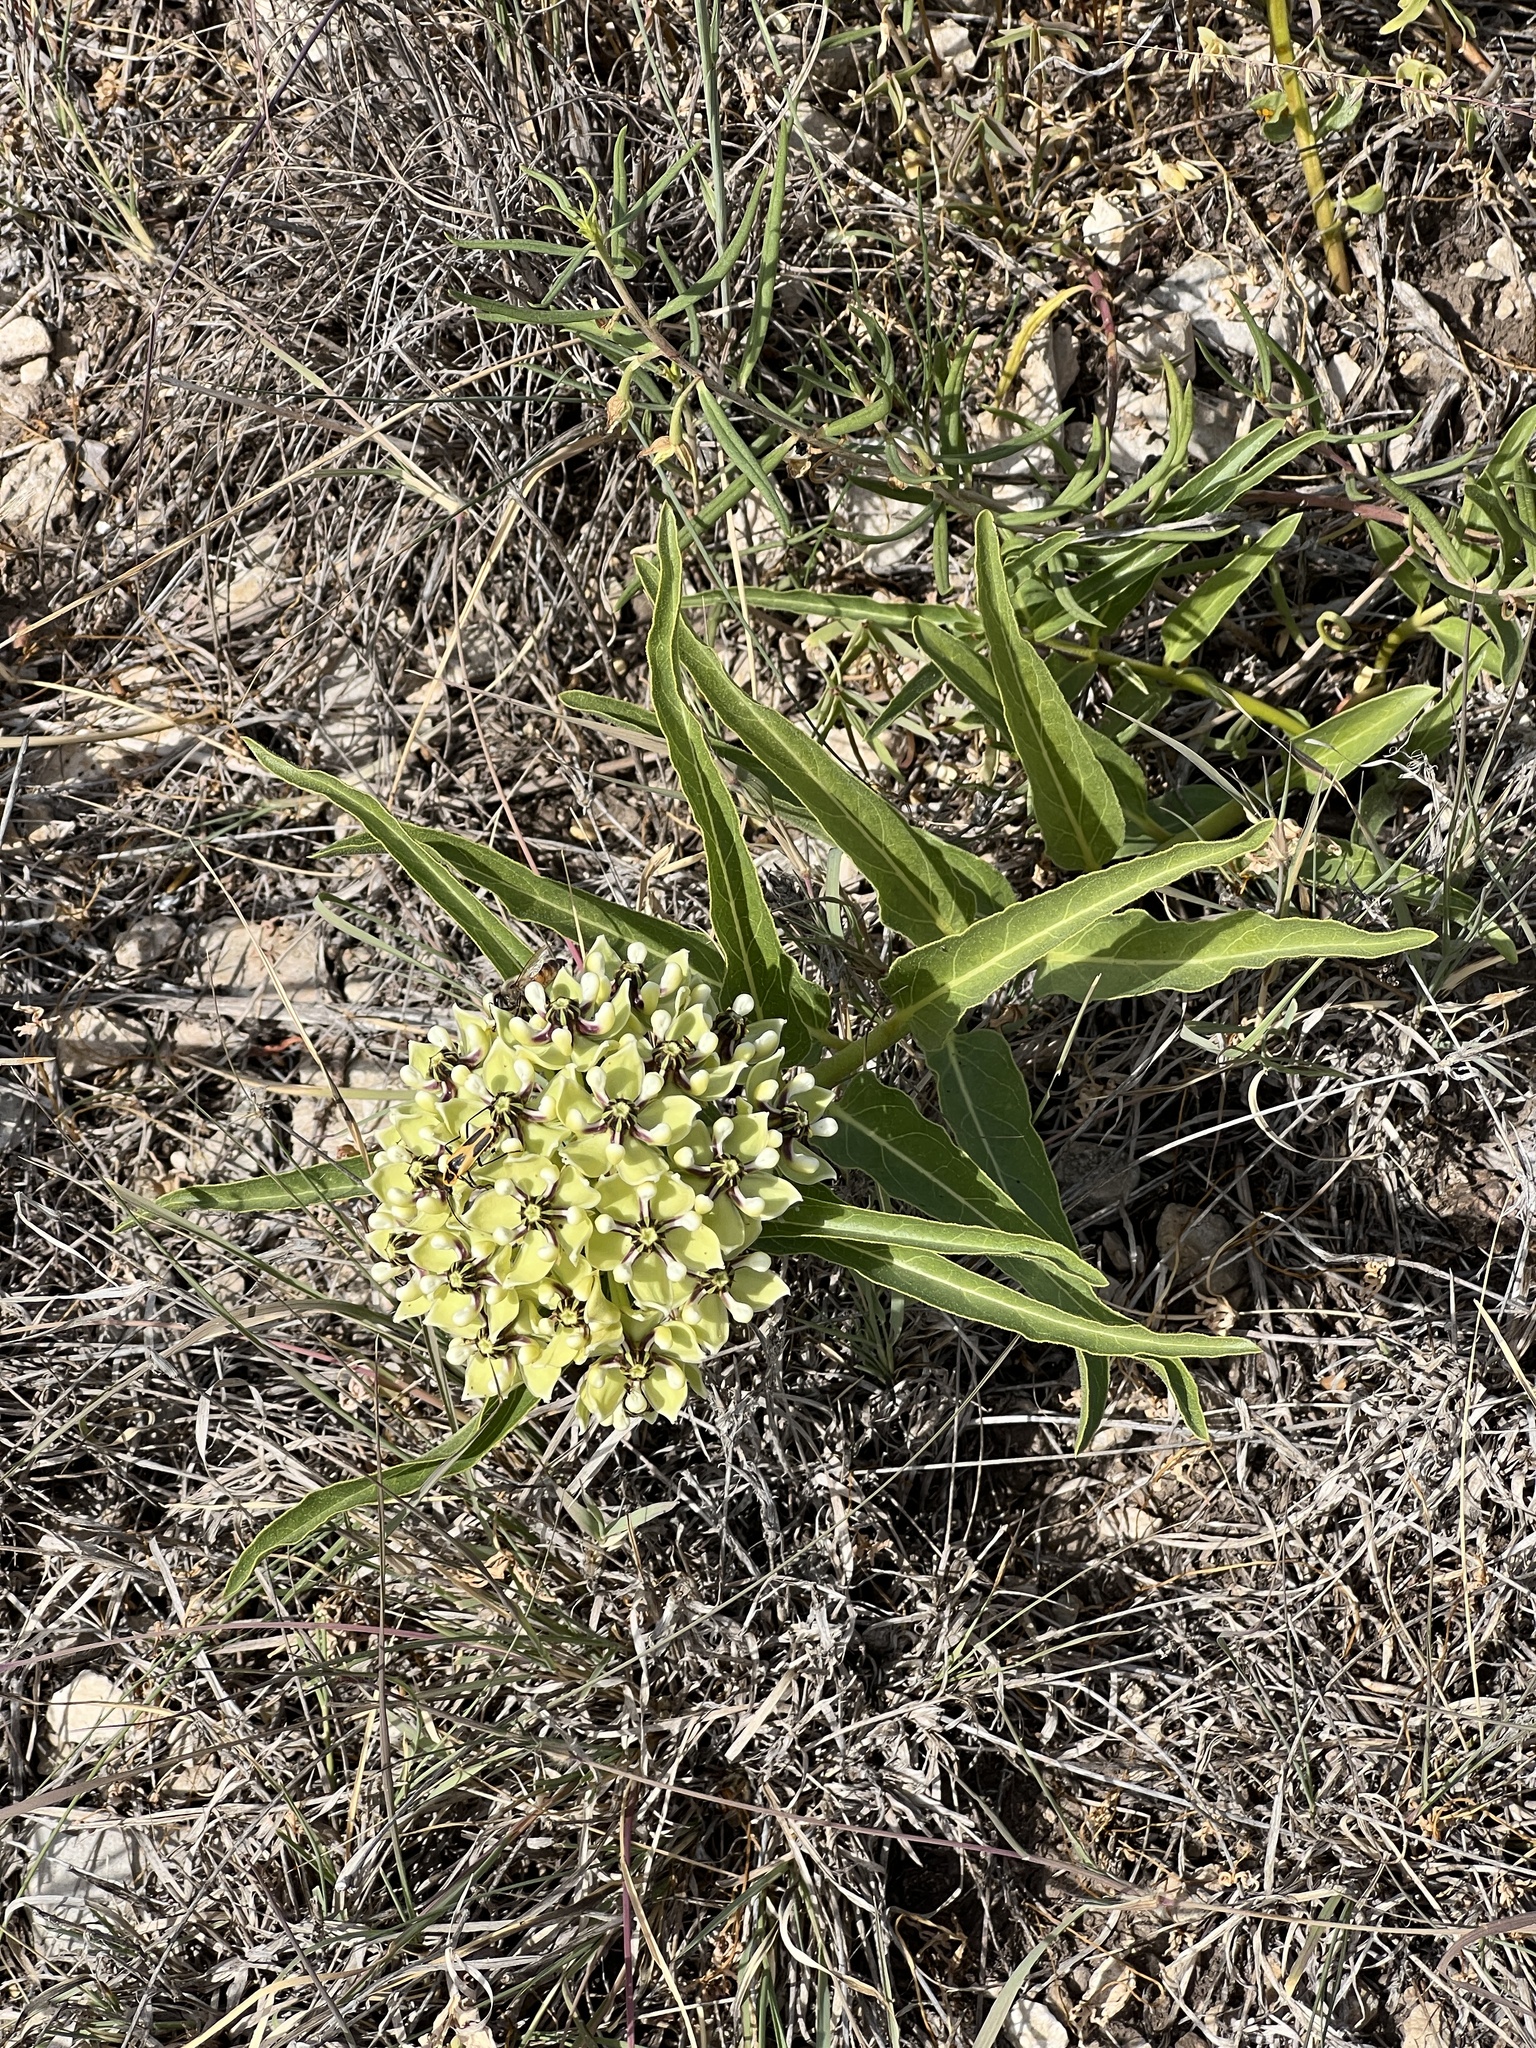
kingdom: Plantae
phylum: Tracheophyta
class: Magnoliopsida
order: Gentianales
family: Apocynaceae
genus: Asclepias
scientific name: Asclepias asperula
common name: Antelope horns
